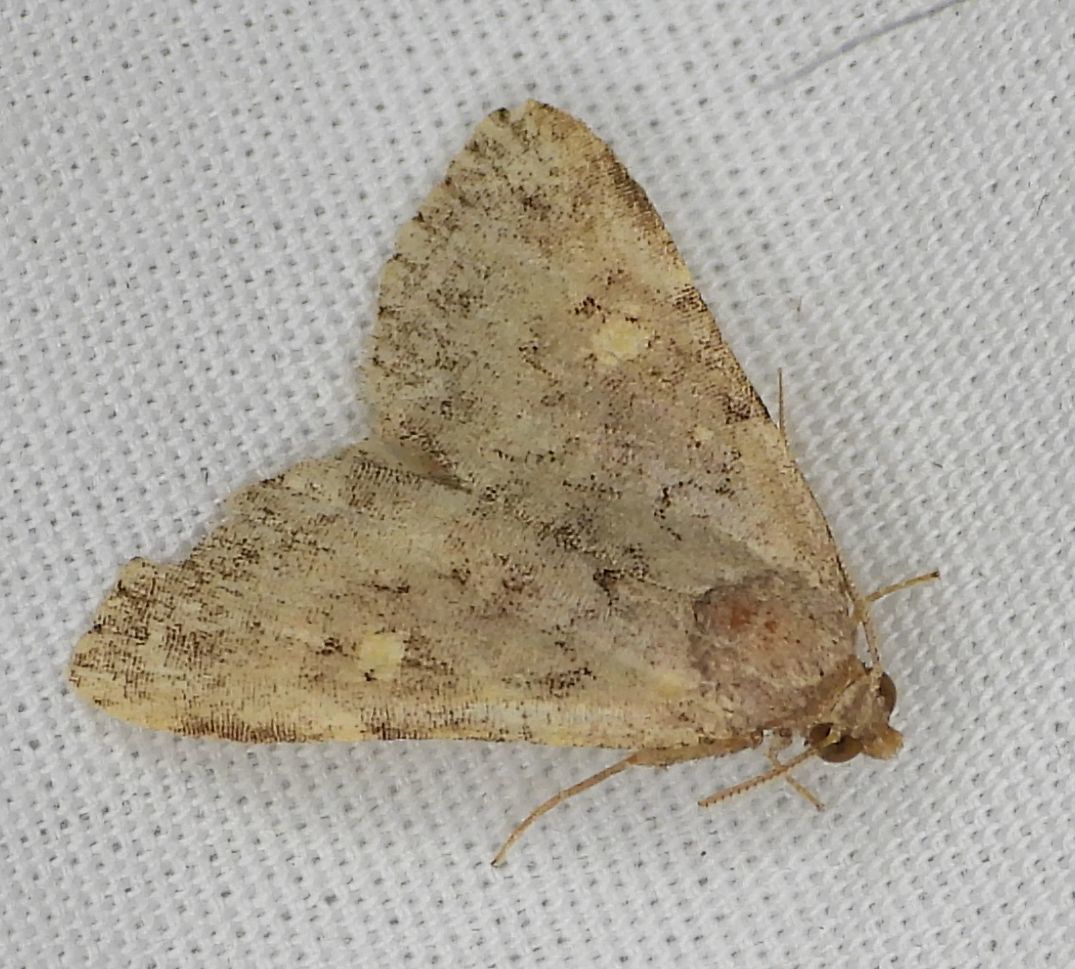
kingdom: Animalia
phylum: Arthropoda
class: Insecta
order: Lepidoptera
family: Erebidae
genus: Idia
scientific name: Idia aemula
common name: Common idia moth
